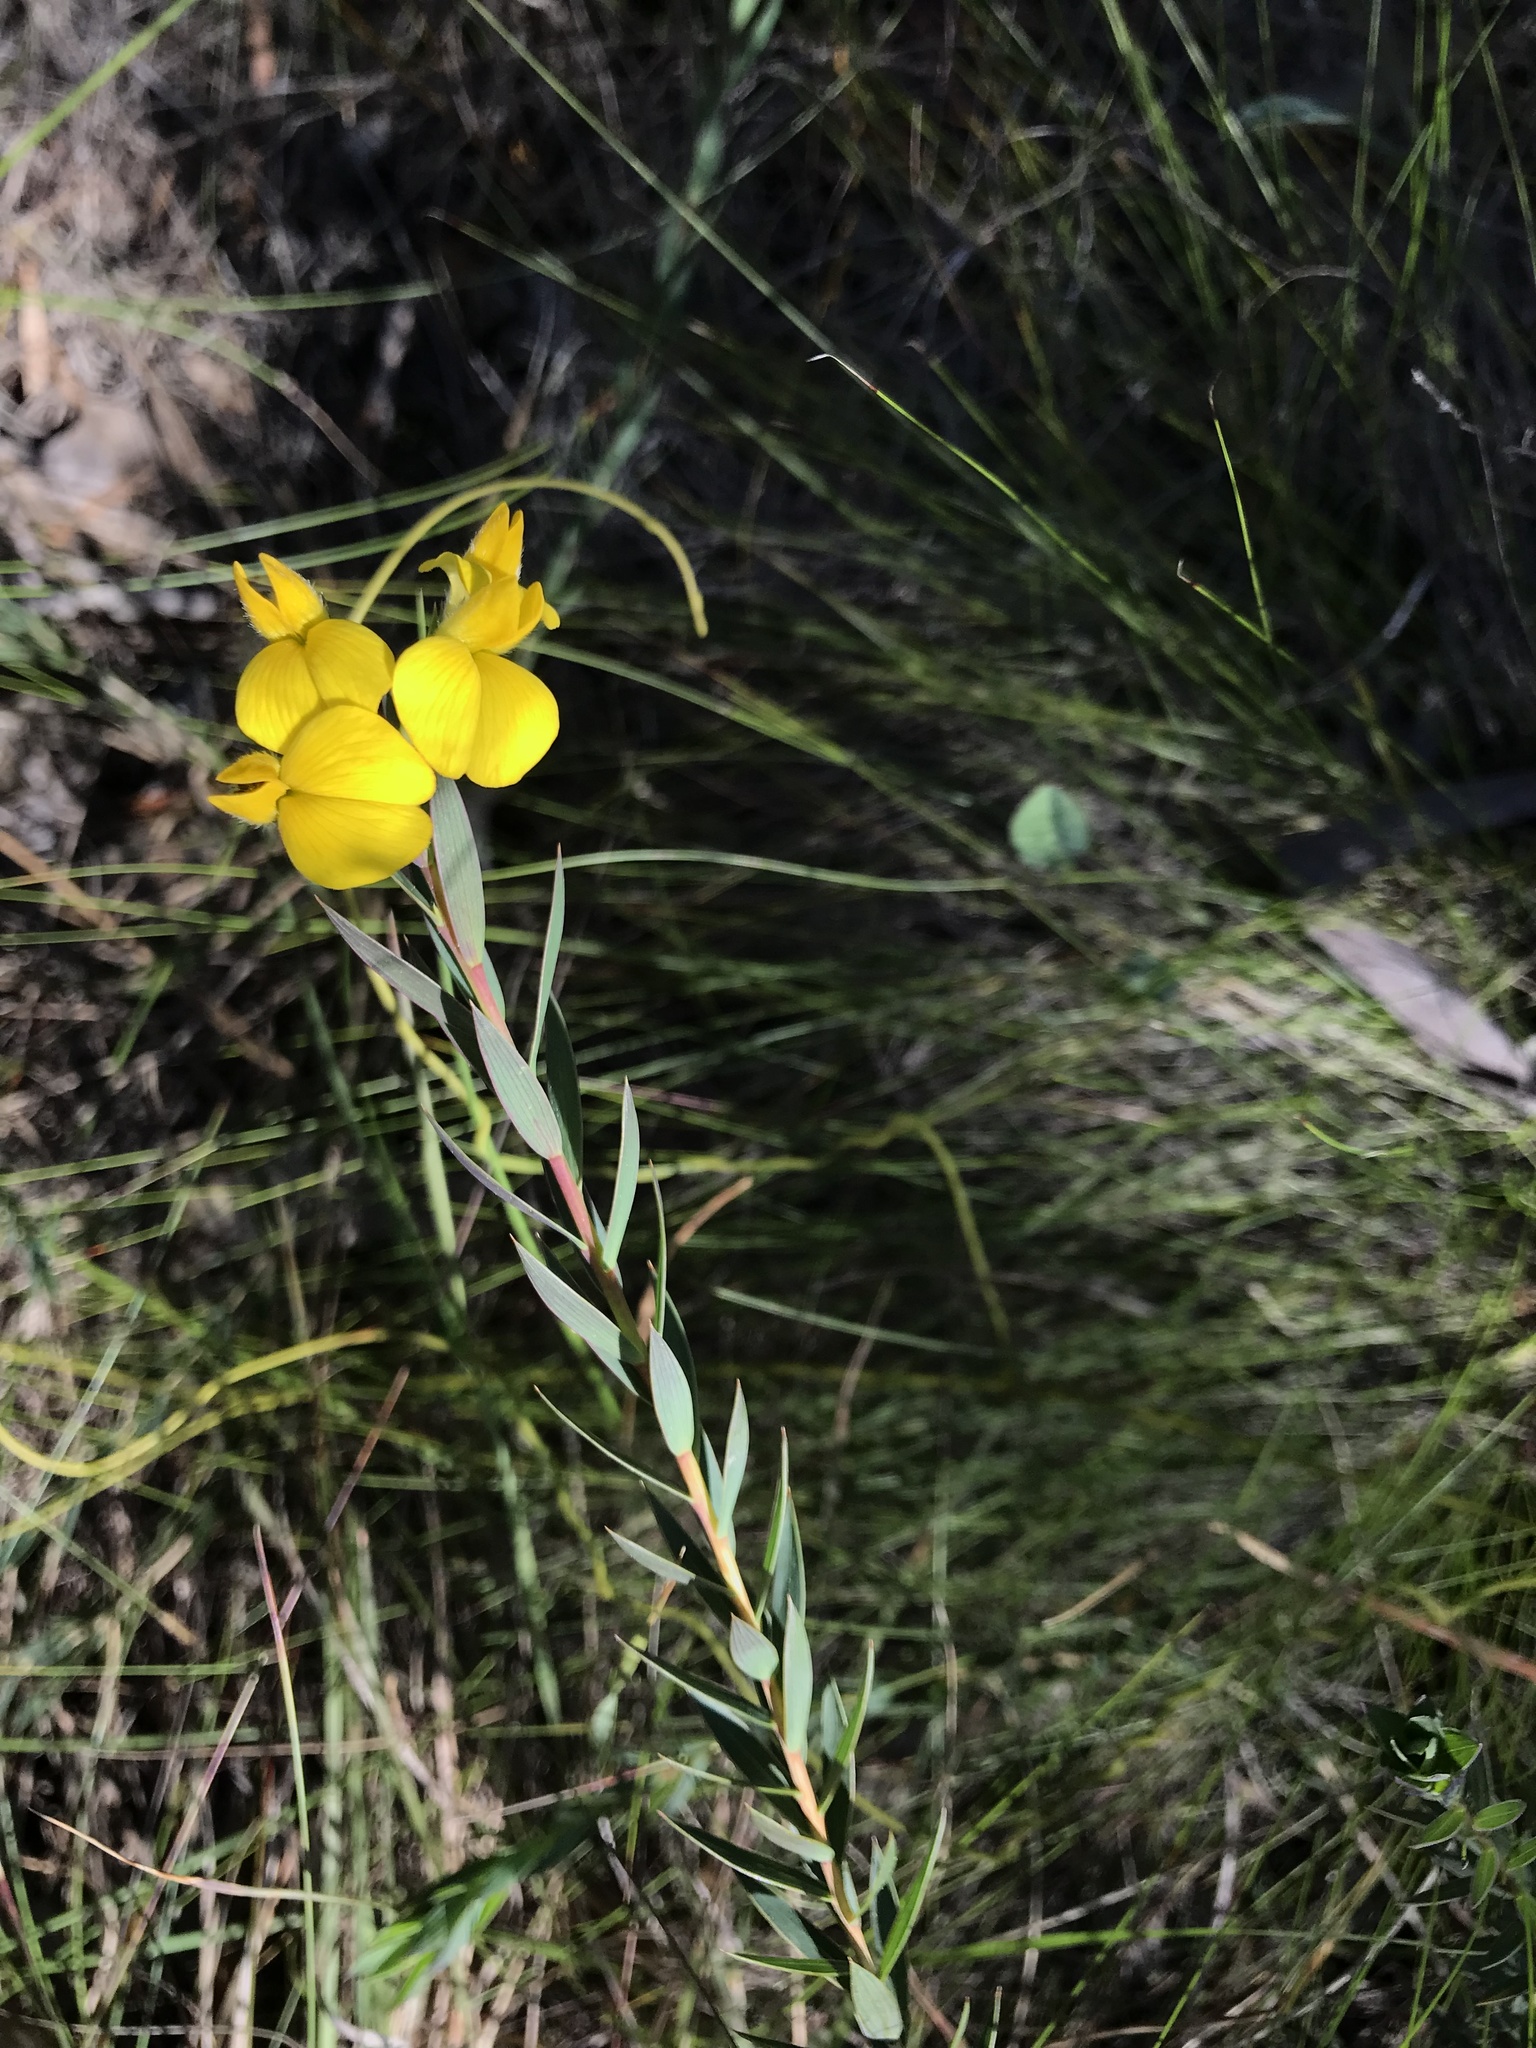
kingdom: Plantae
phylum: Tracheophyta
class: Magnoliopsida
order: Fabales
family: Fabaceae
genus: Aspalathus
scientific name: Aspalathus angustifolia
